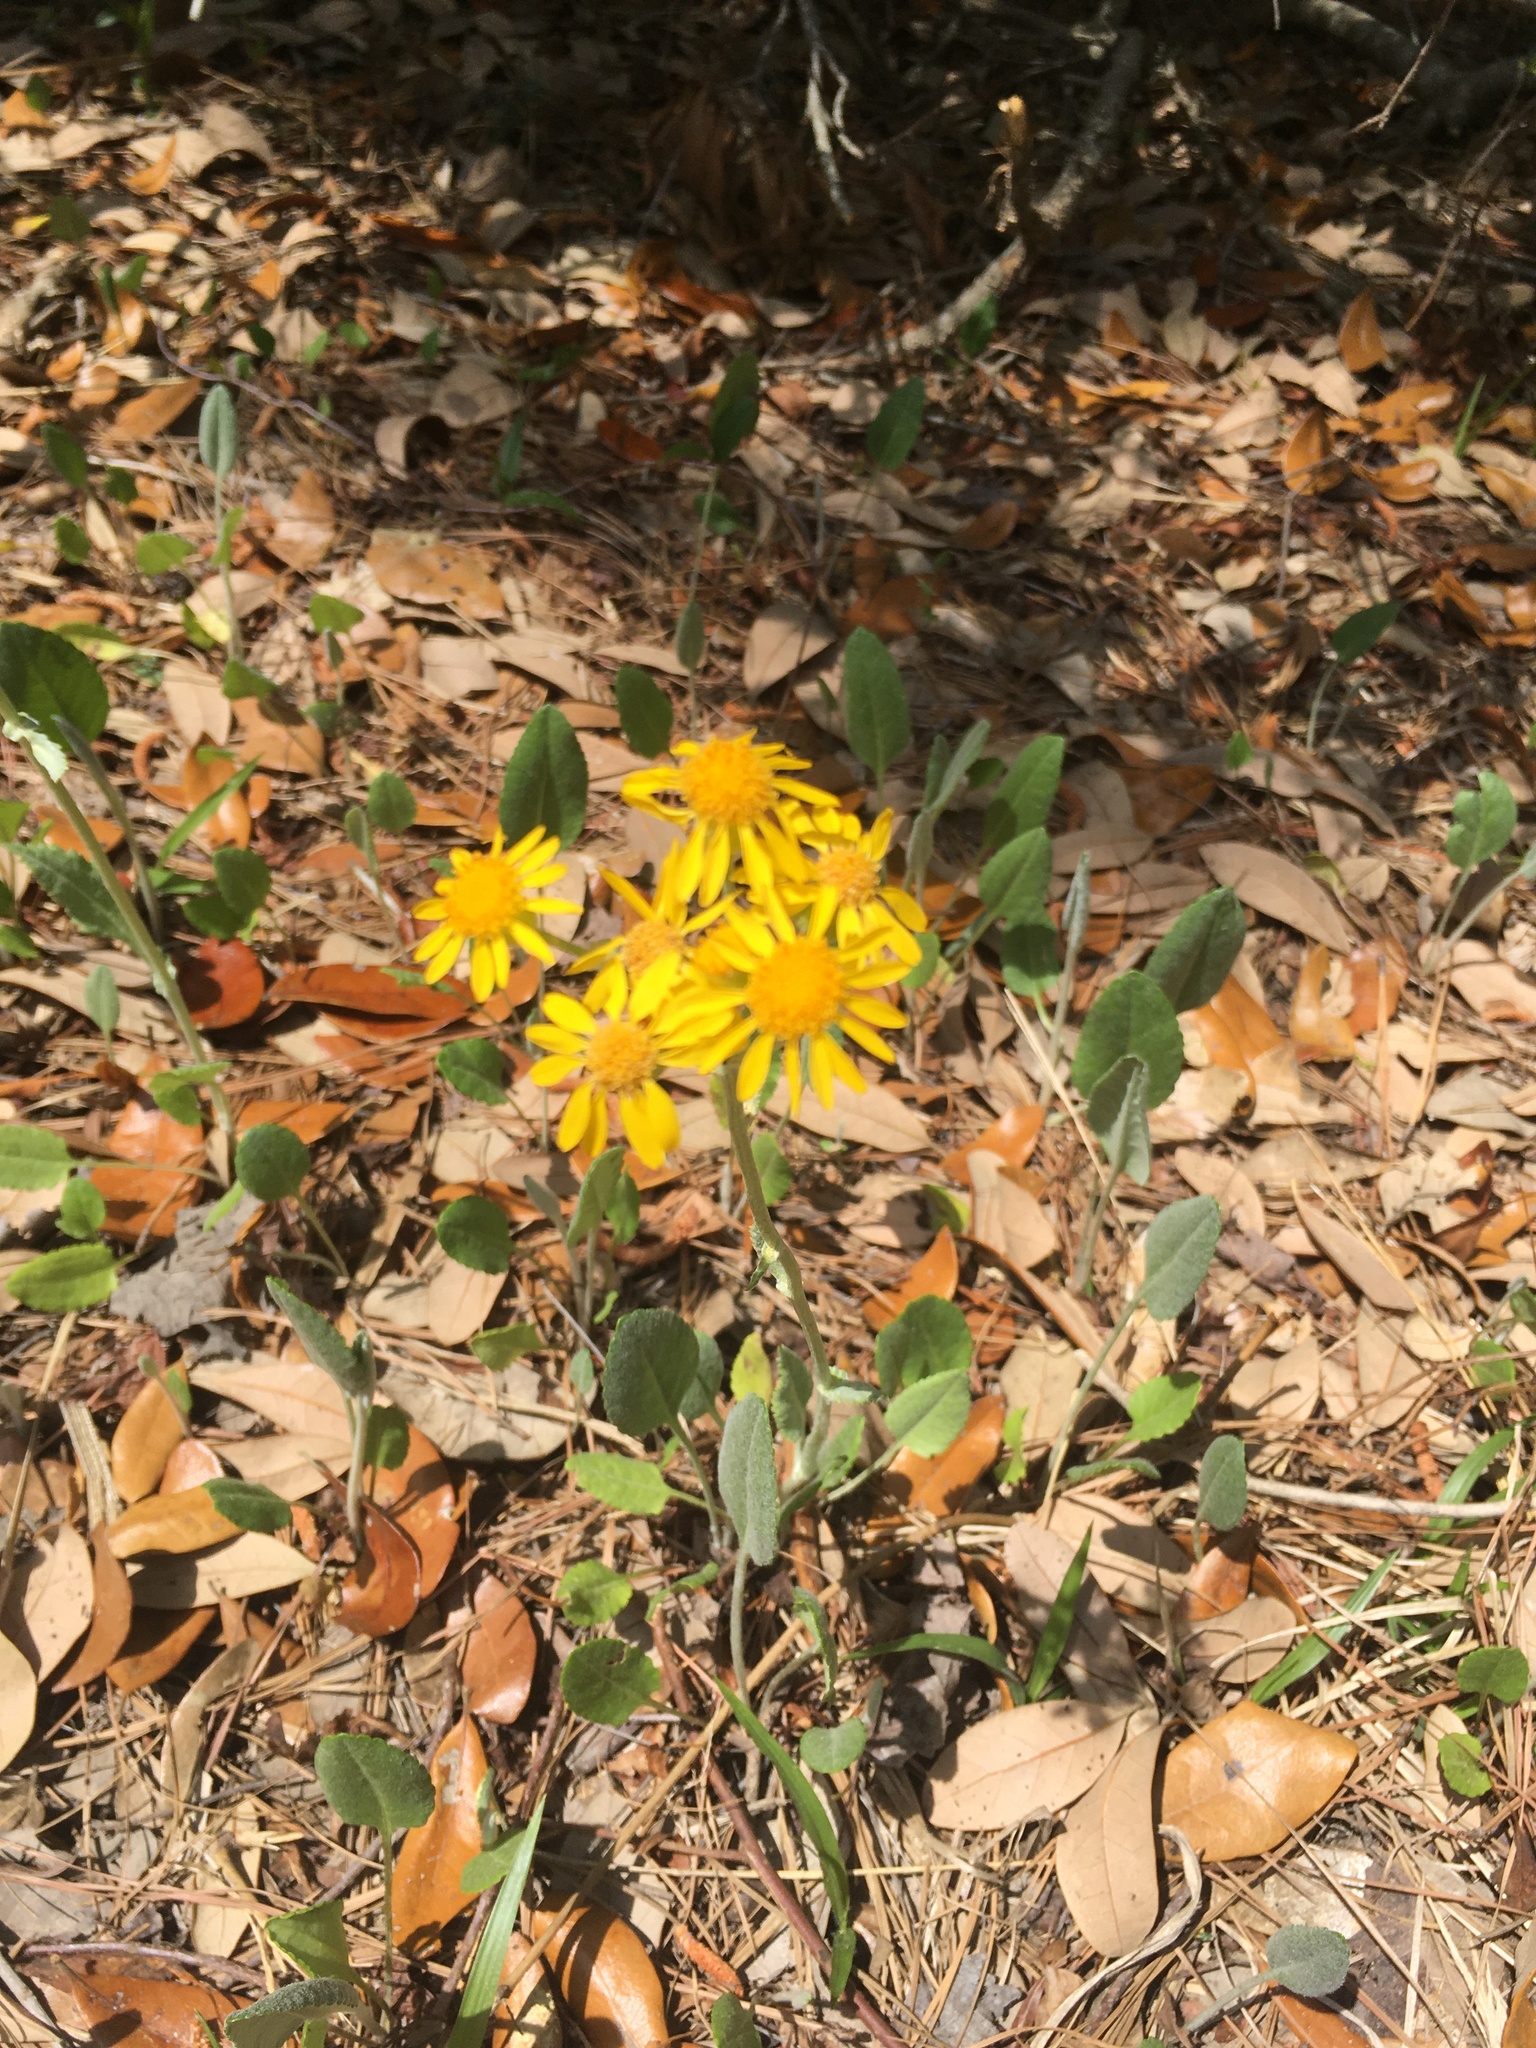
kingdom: Plantae
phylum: Tracheophyta
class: Magnoliopsida
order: Asterales
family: Asteraceae
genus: Packera
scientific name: Packera dubia
